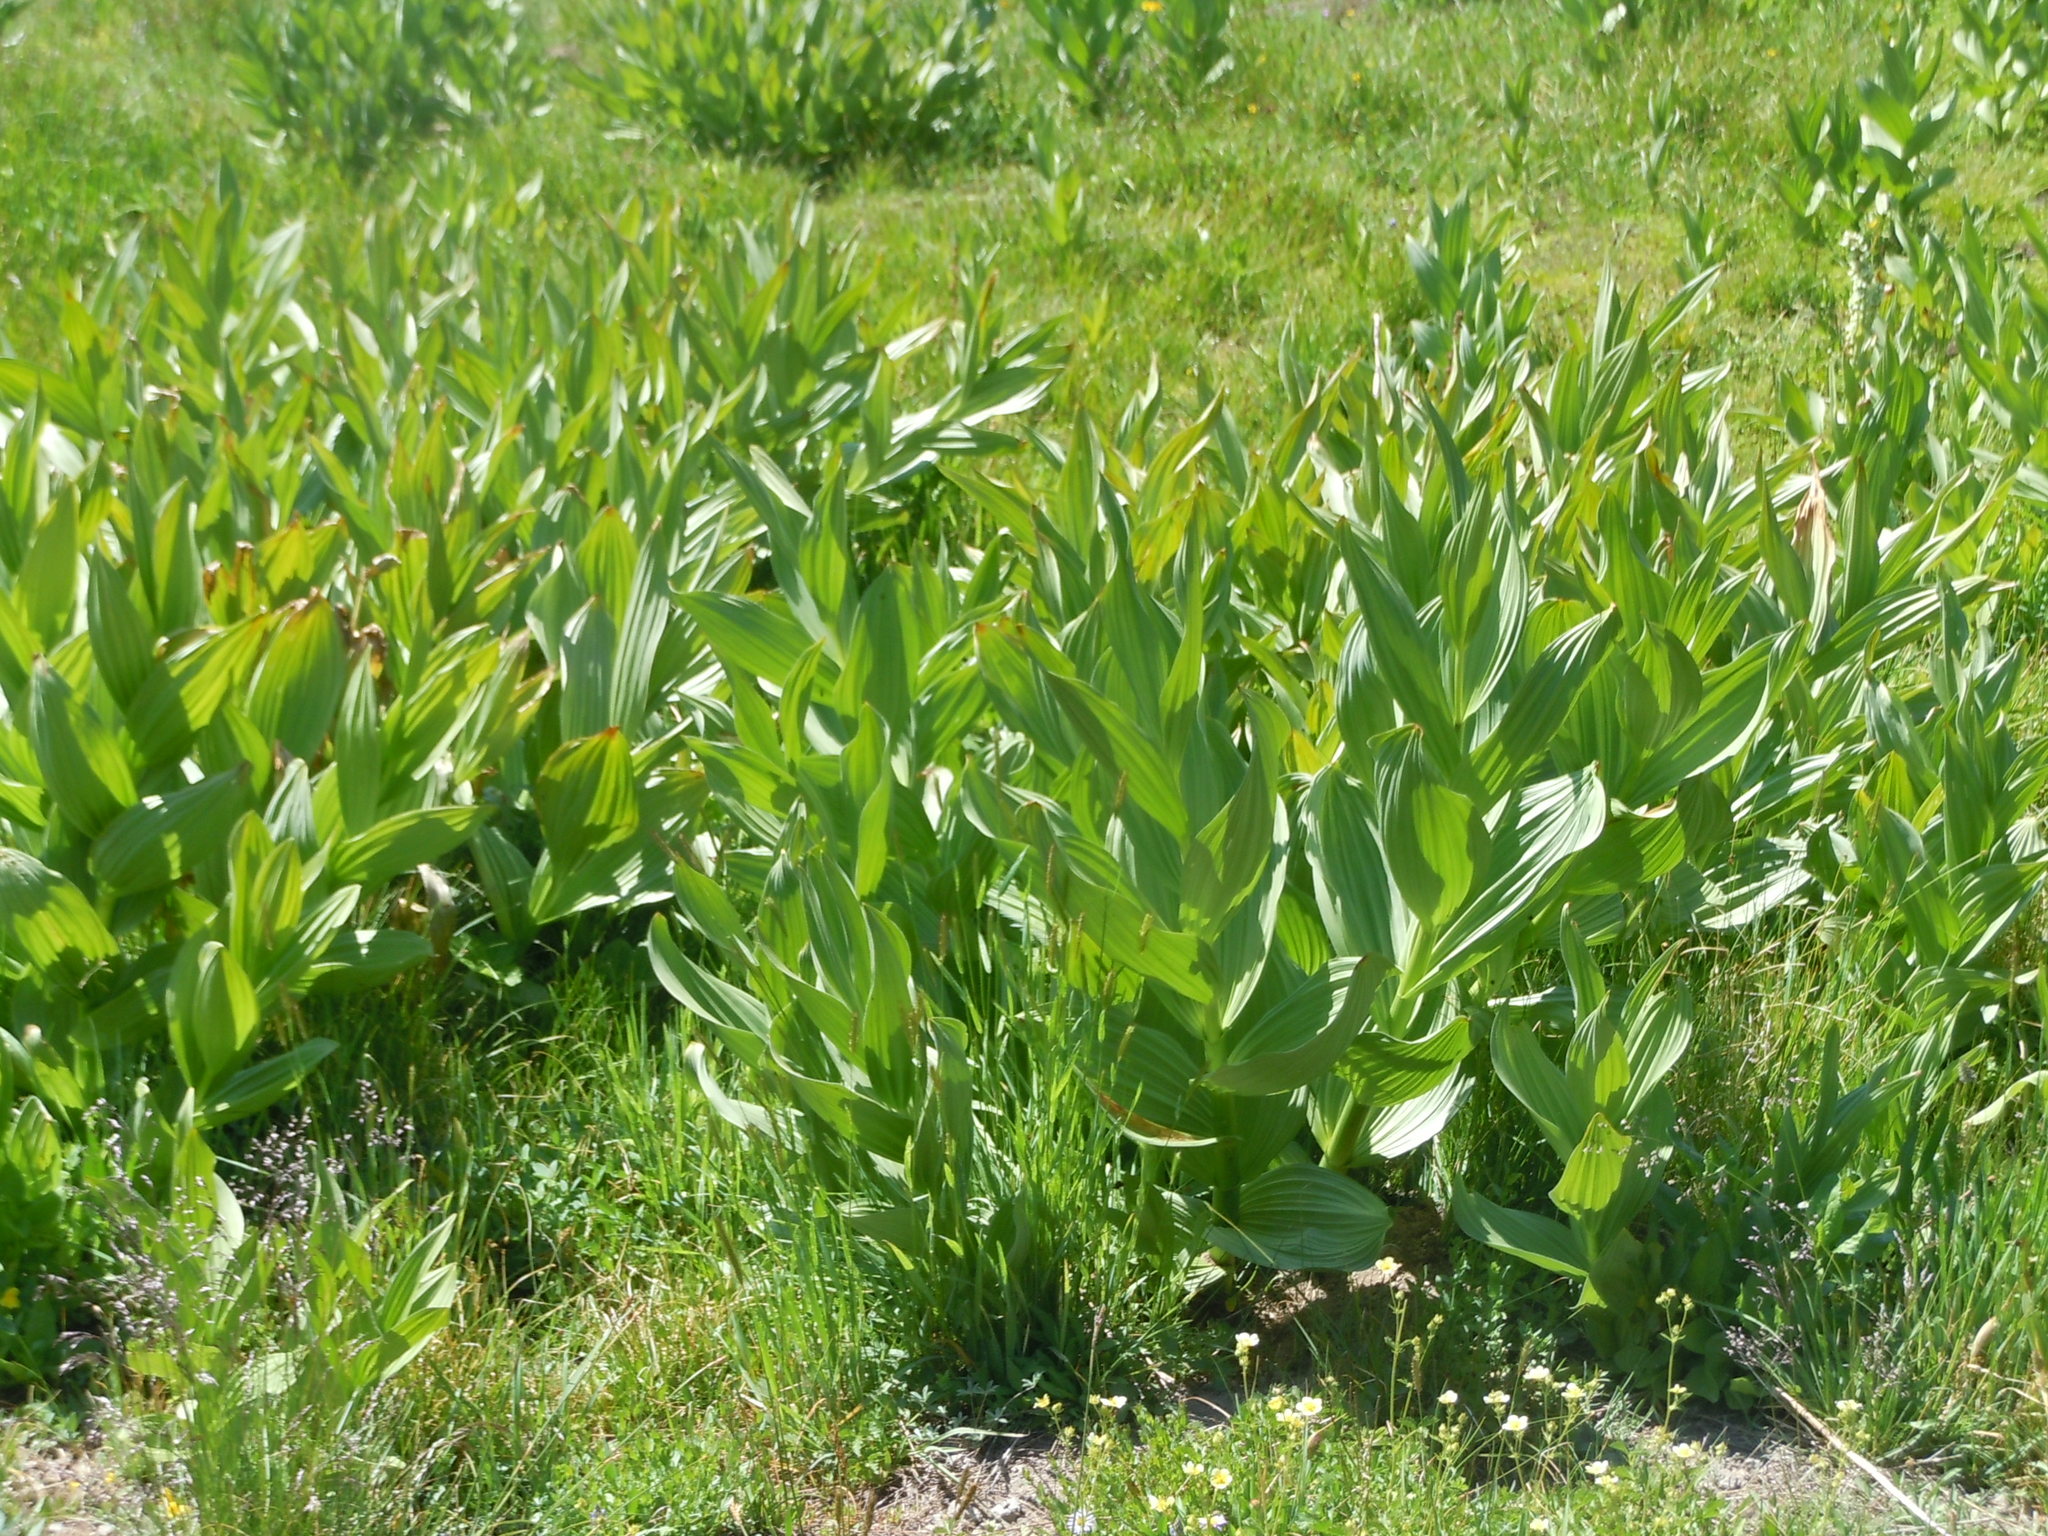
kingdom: Plantae
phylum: Tracheophyta
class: Liliopsida
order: Liliales
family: Melanthiaceae
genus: Veratrum
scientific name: Veratrum californicum
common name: California veratrum
